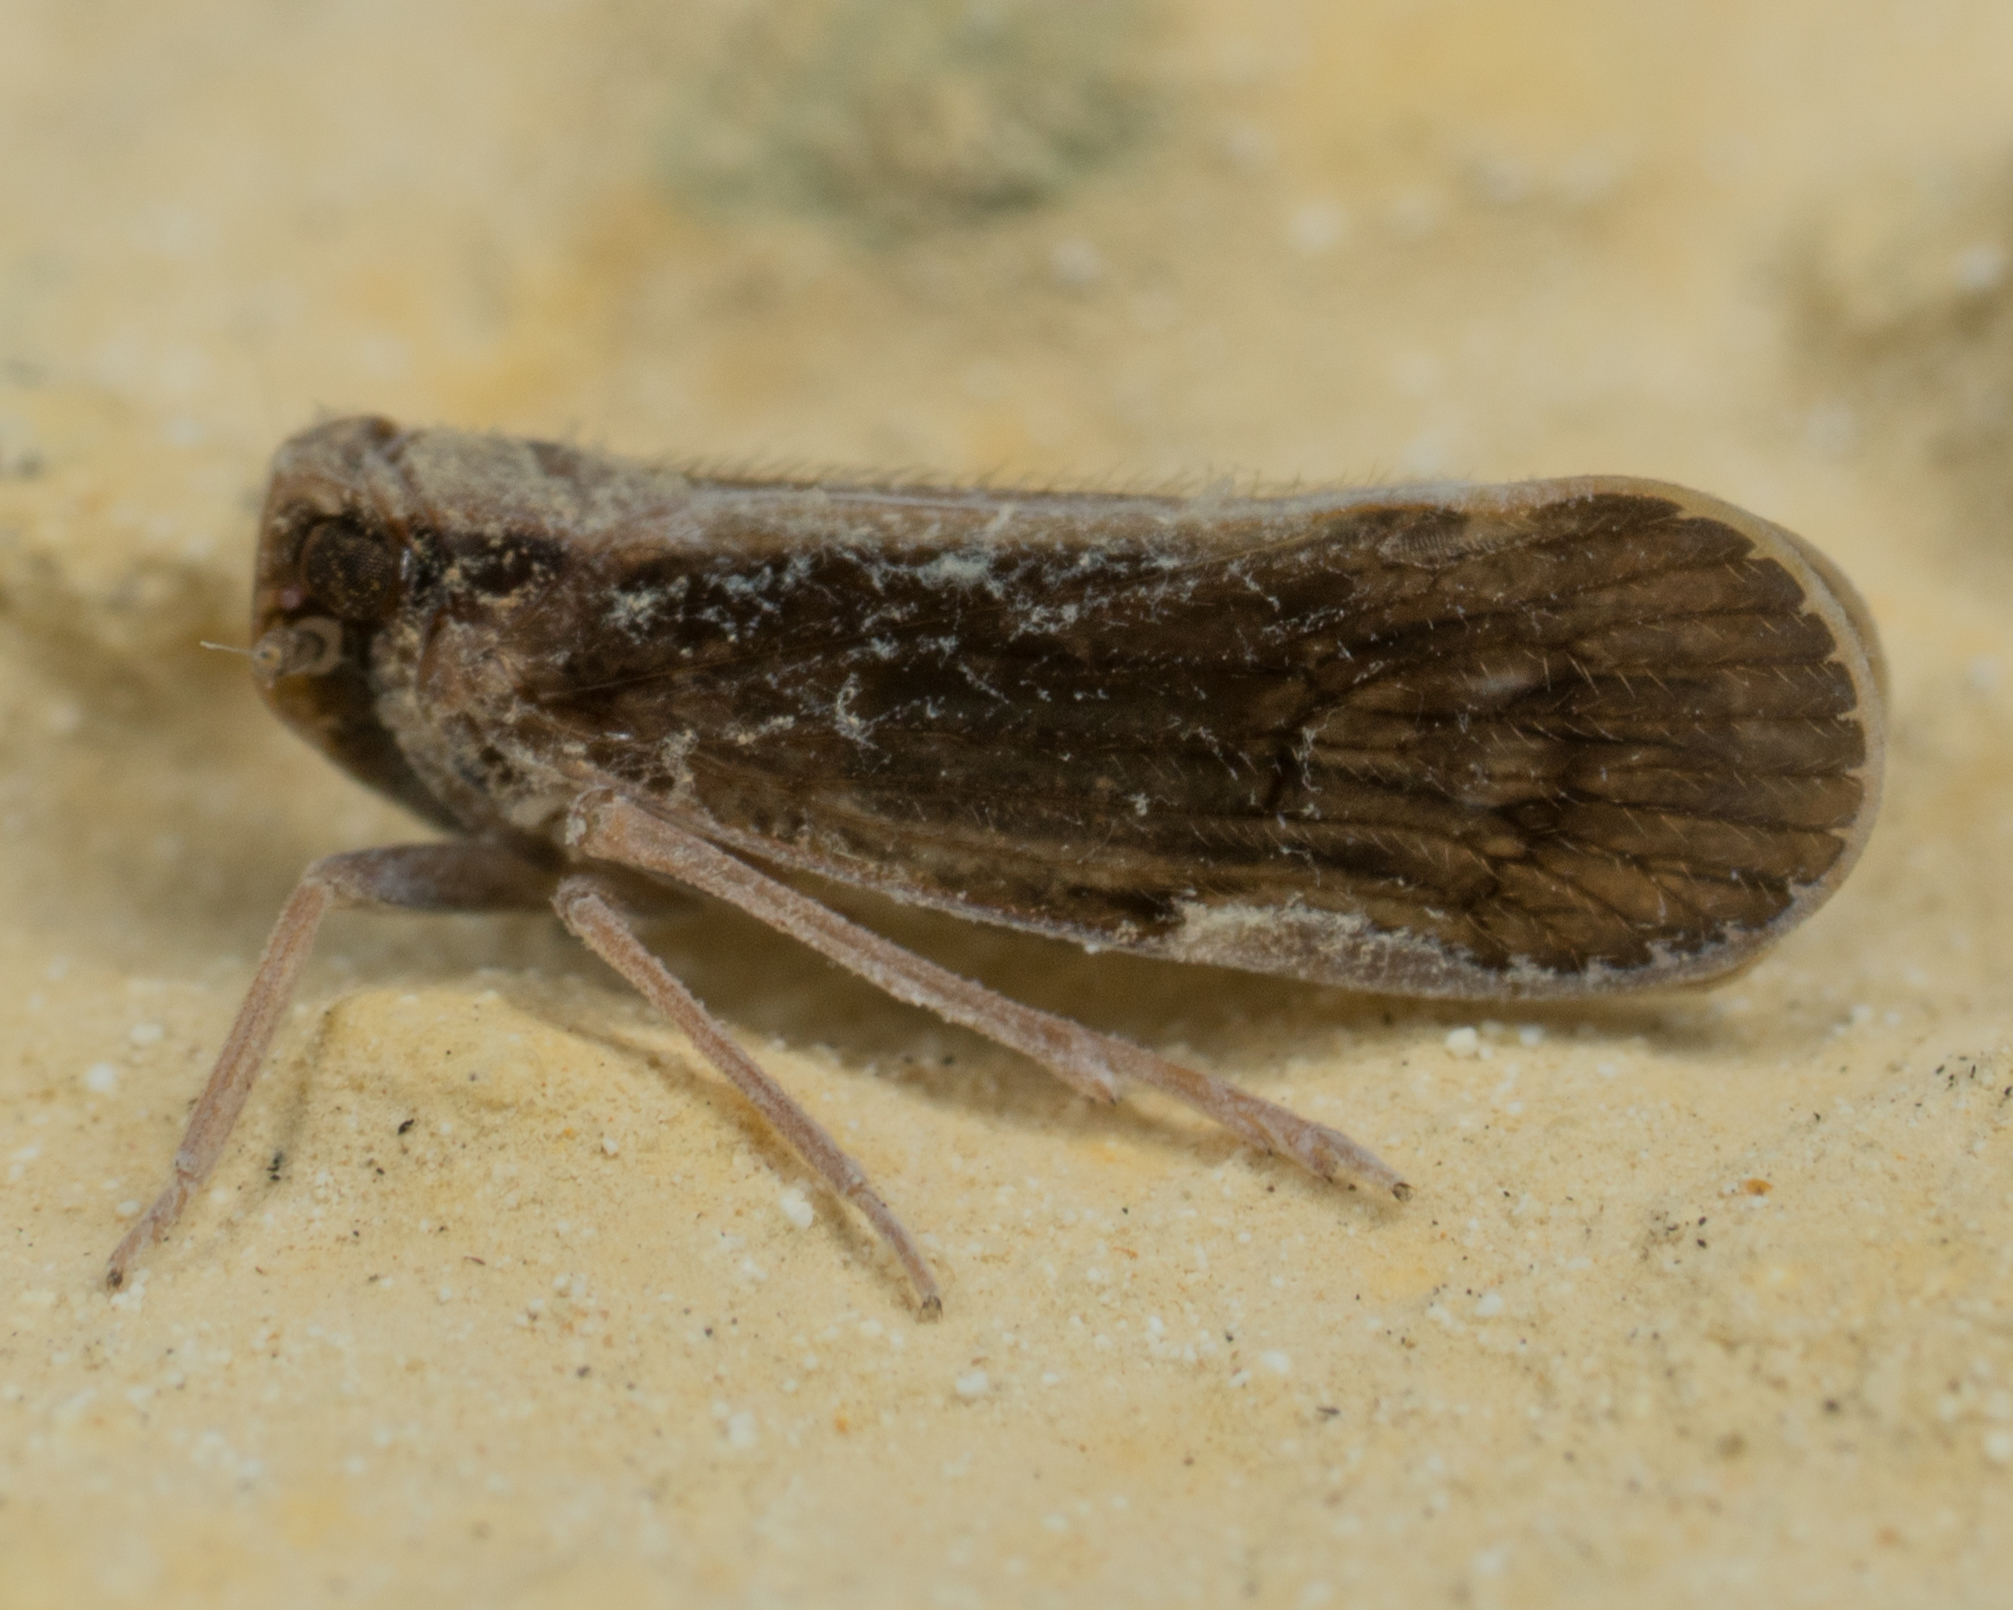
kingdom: Animalia
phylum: Arthropoda
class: Insecta
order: Hemiptera
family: Cixiidae
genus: Pintalia
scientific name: Pintalia delicata
